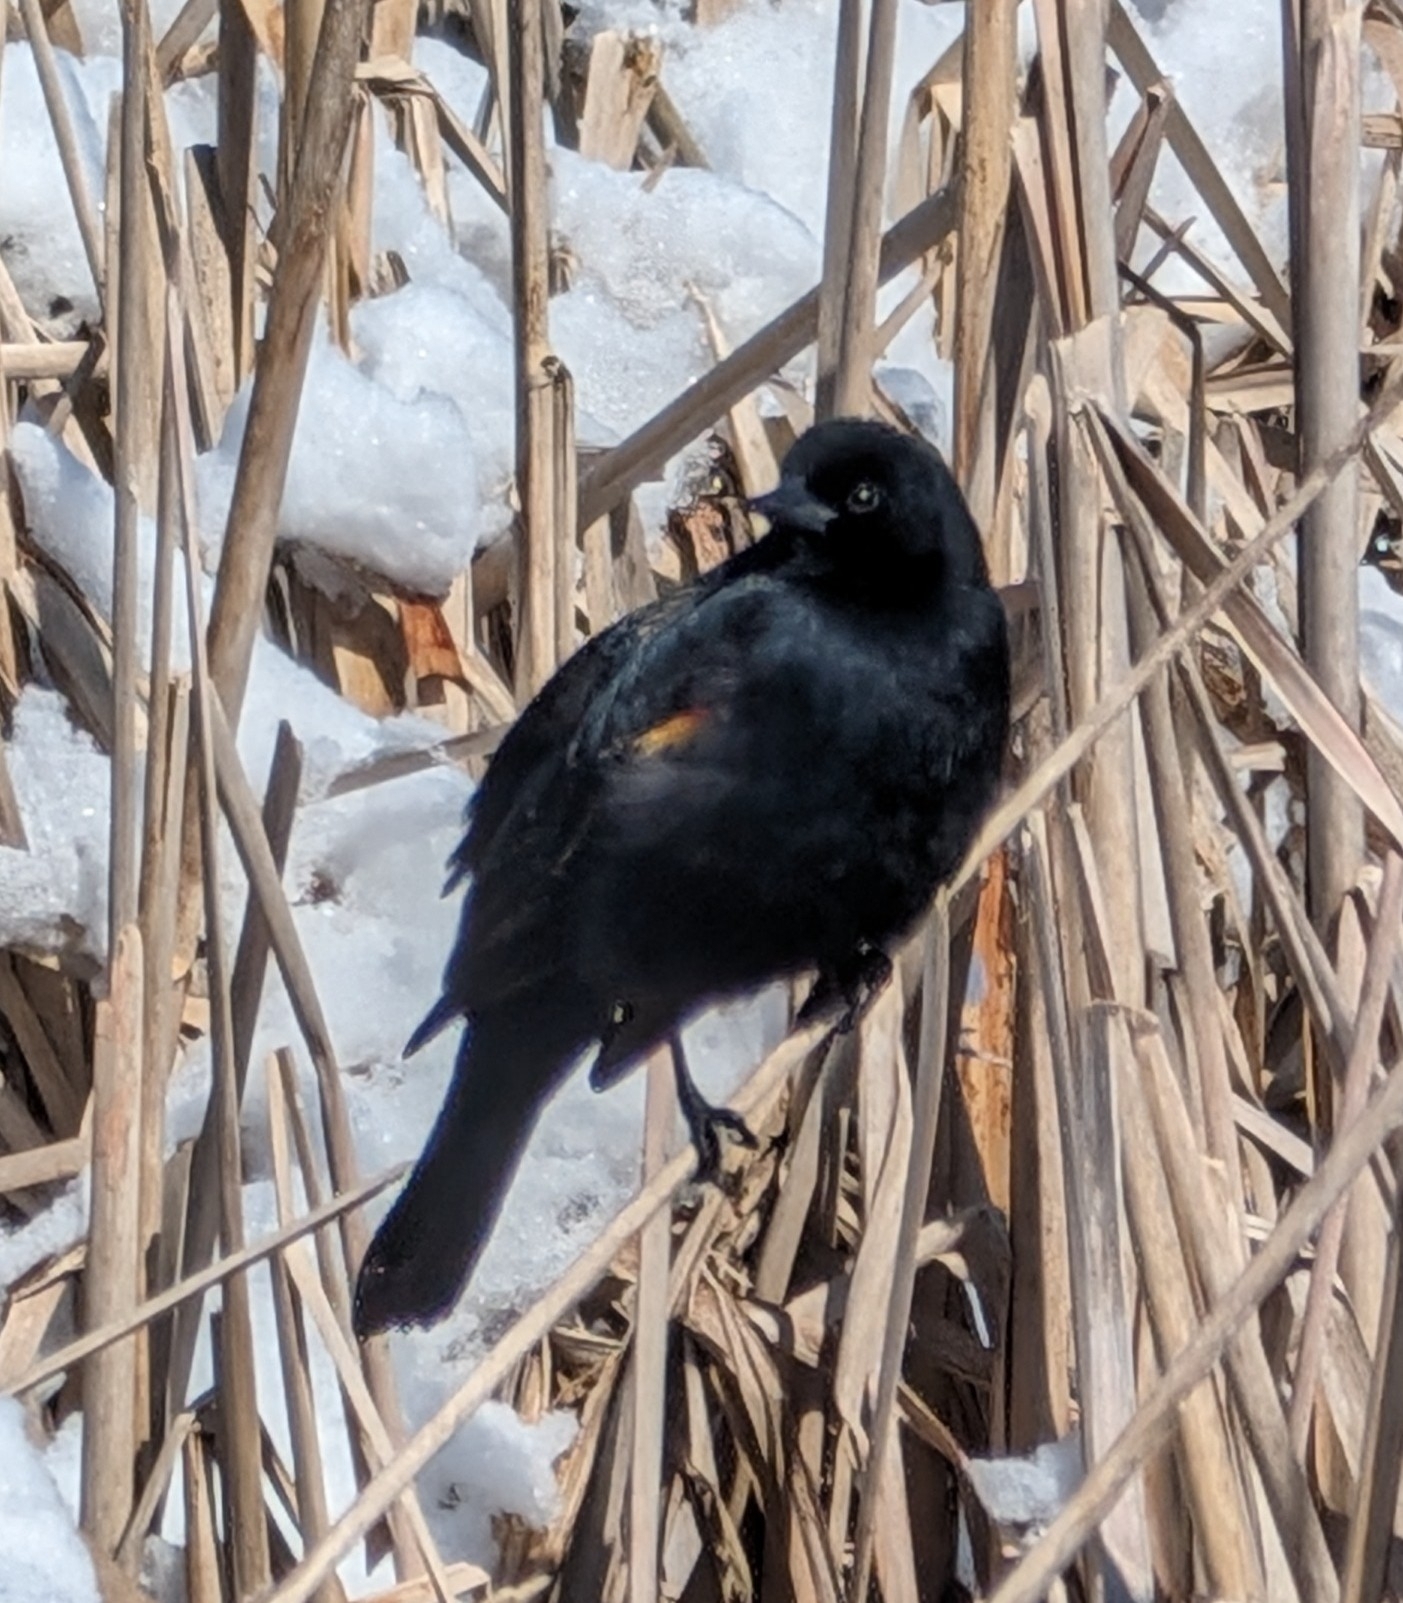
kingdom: Animalia
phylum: Chordata
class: Aves
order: Passeriformes
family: Icteridae
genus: Agelaius
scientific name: Agelaius phoeniceus
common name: Red-winged blackbird
